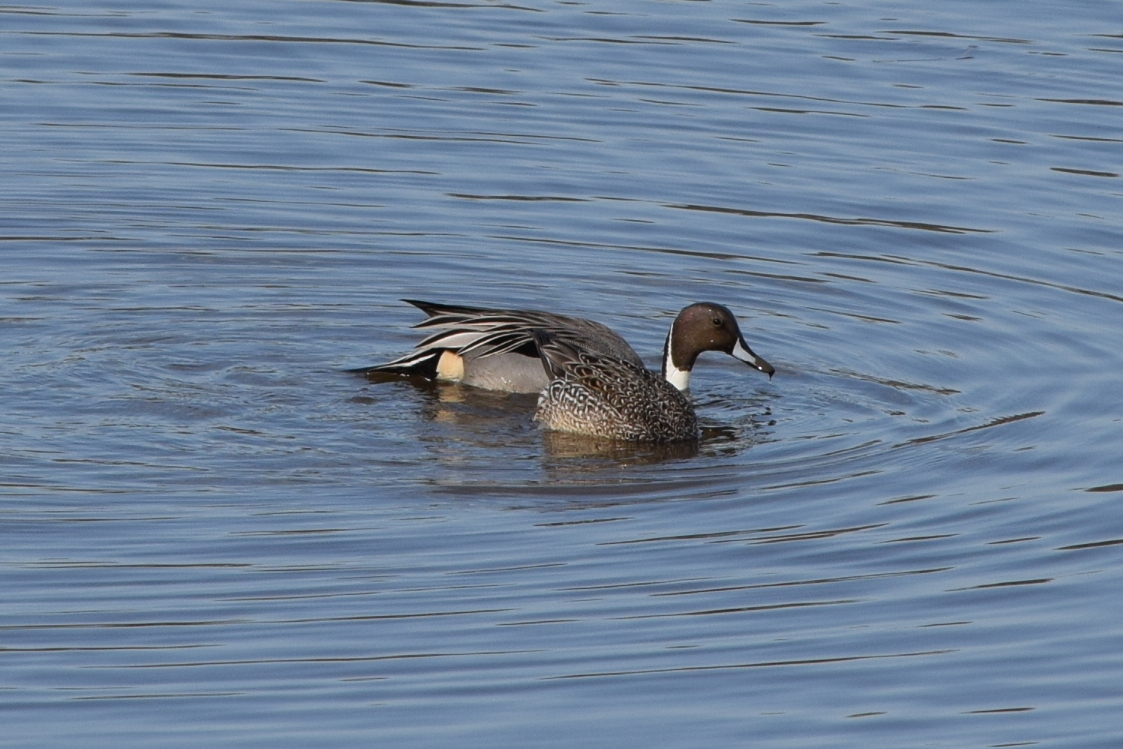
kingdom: Animalia
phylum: Chordata
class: Aves
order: Anseriformes
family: Anatidae
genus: Anas
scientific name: Anas acuta
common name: Northern pintail
